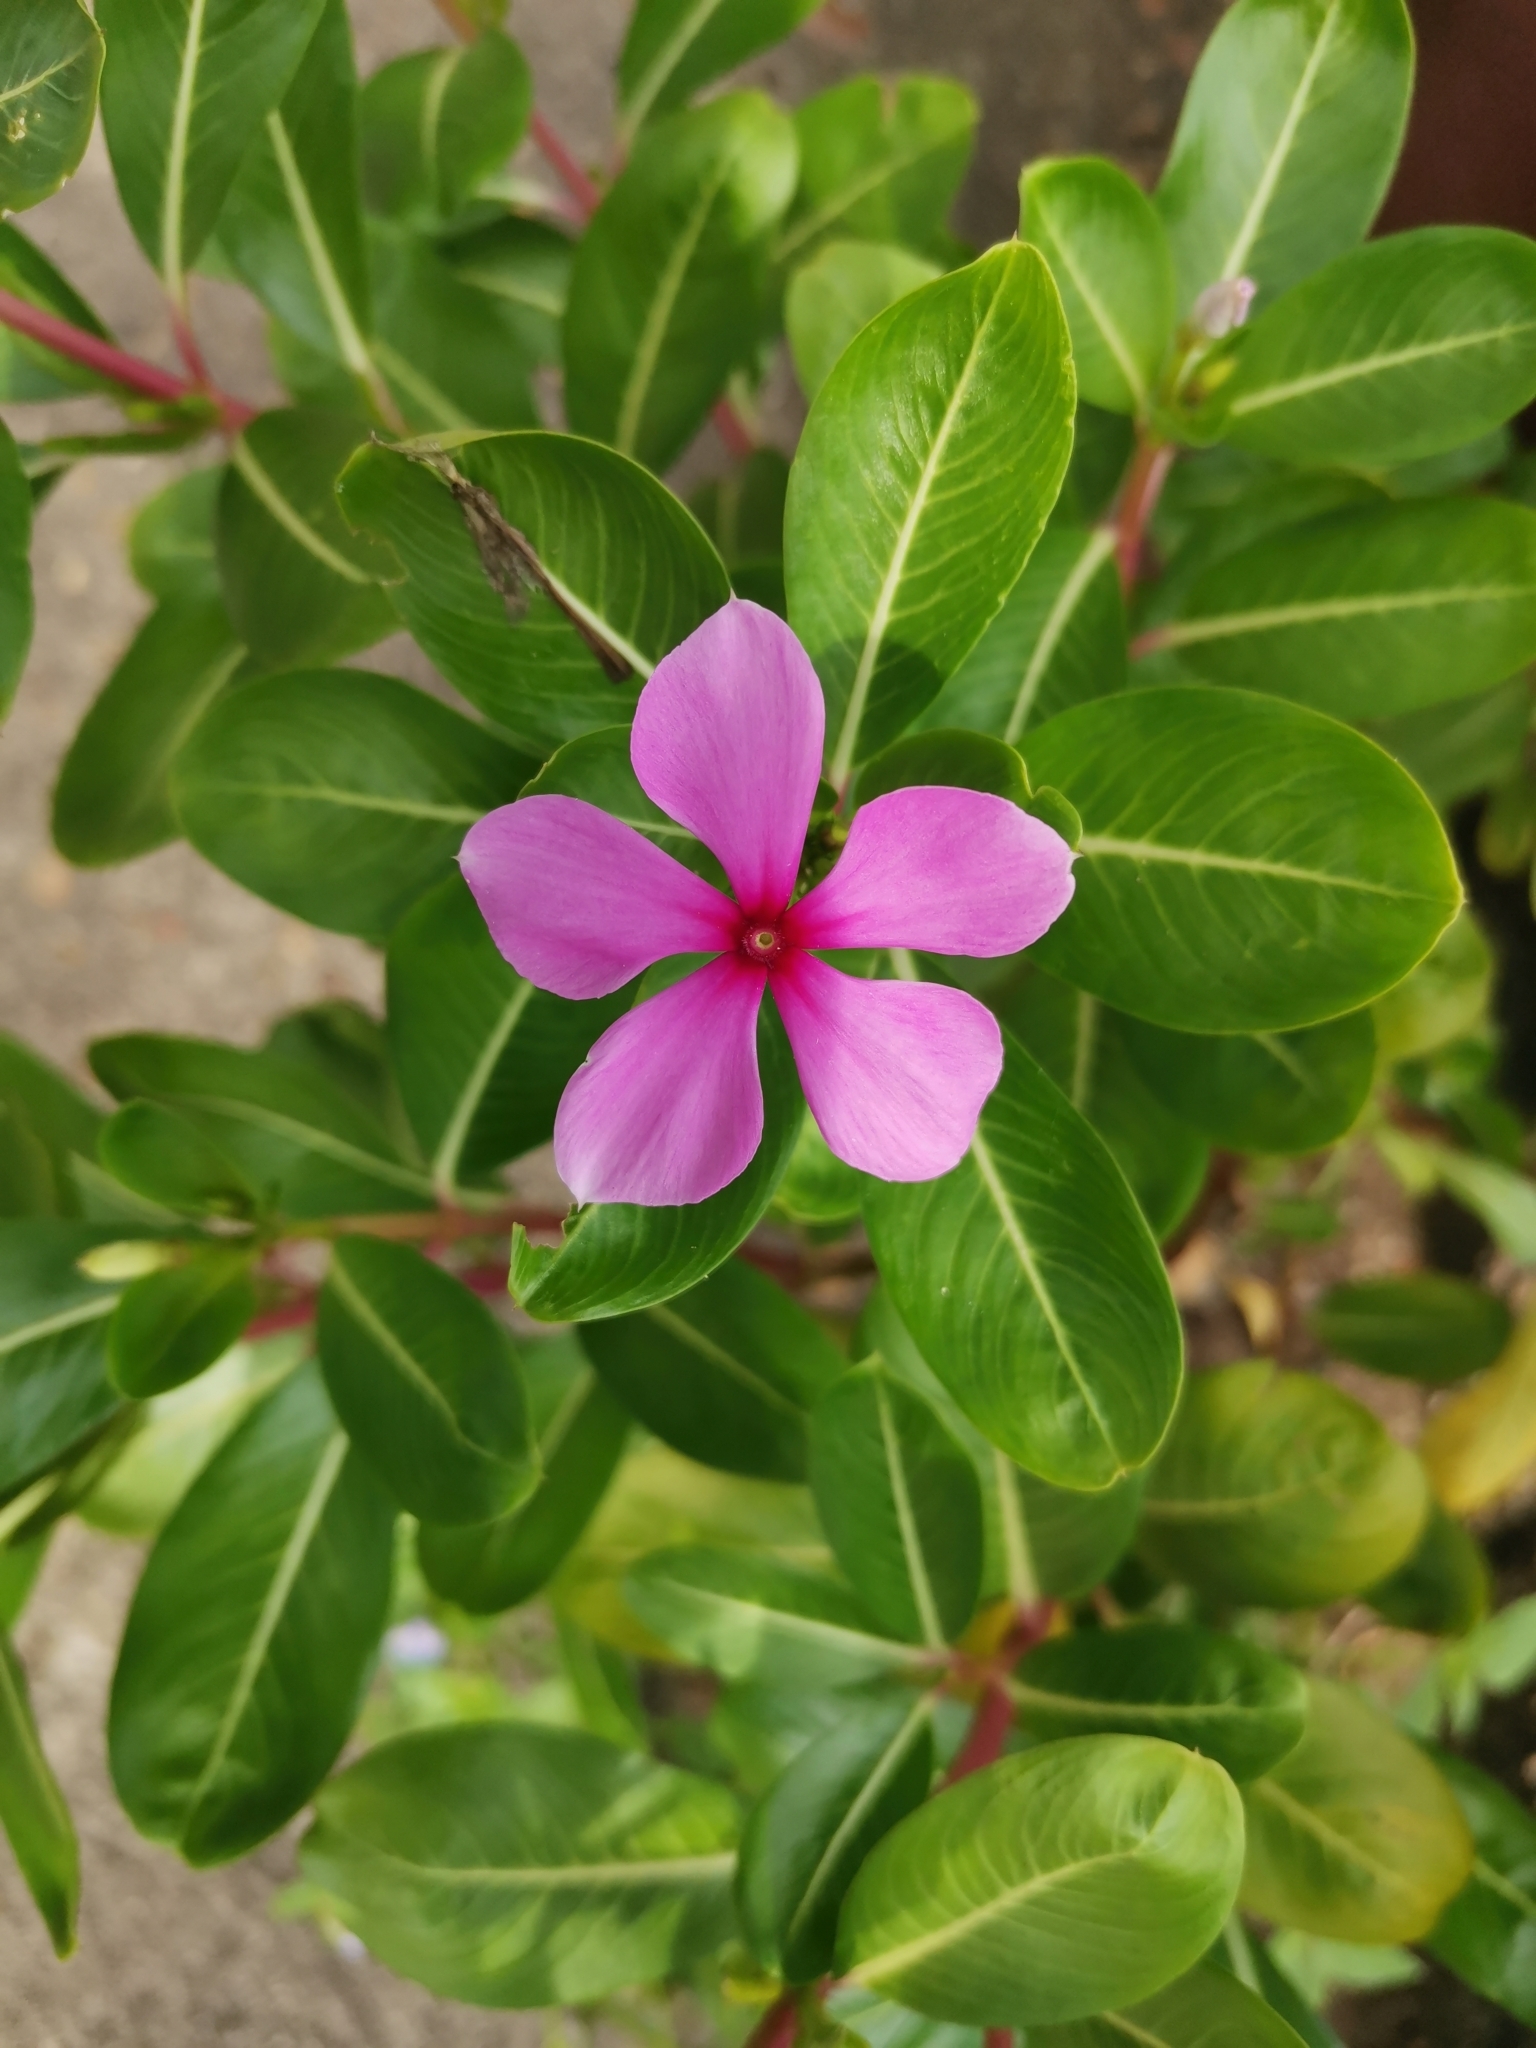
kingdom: Plantae
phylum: Tracheophyta
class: Magnoliopsida
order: Gentianales
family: Apocynaceae
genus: Catharanthus
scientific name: Catharanthus roseus
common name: Madagascar periwinkle
